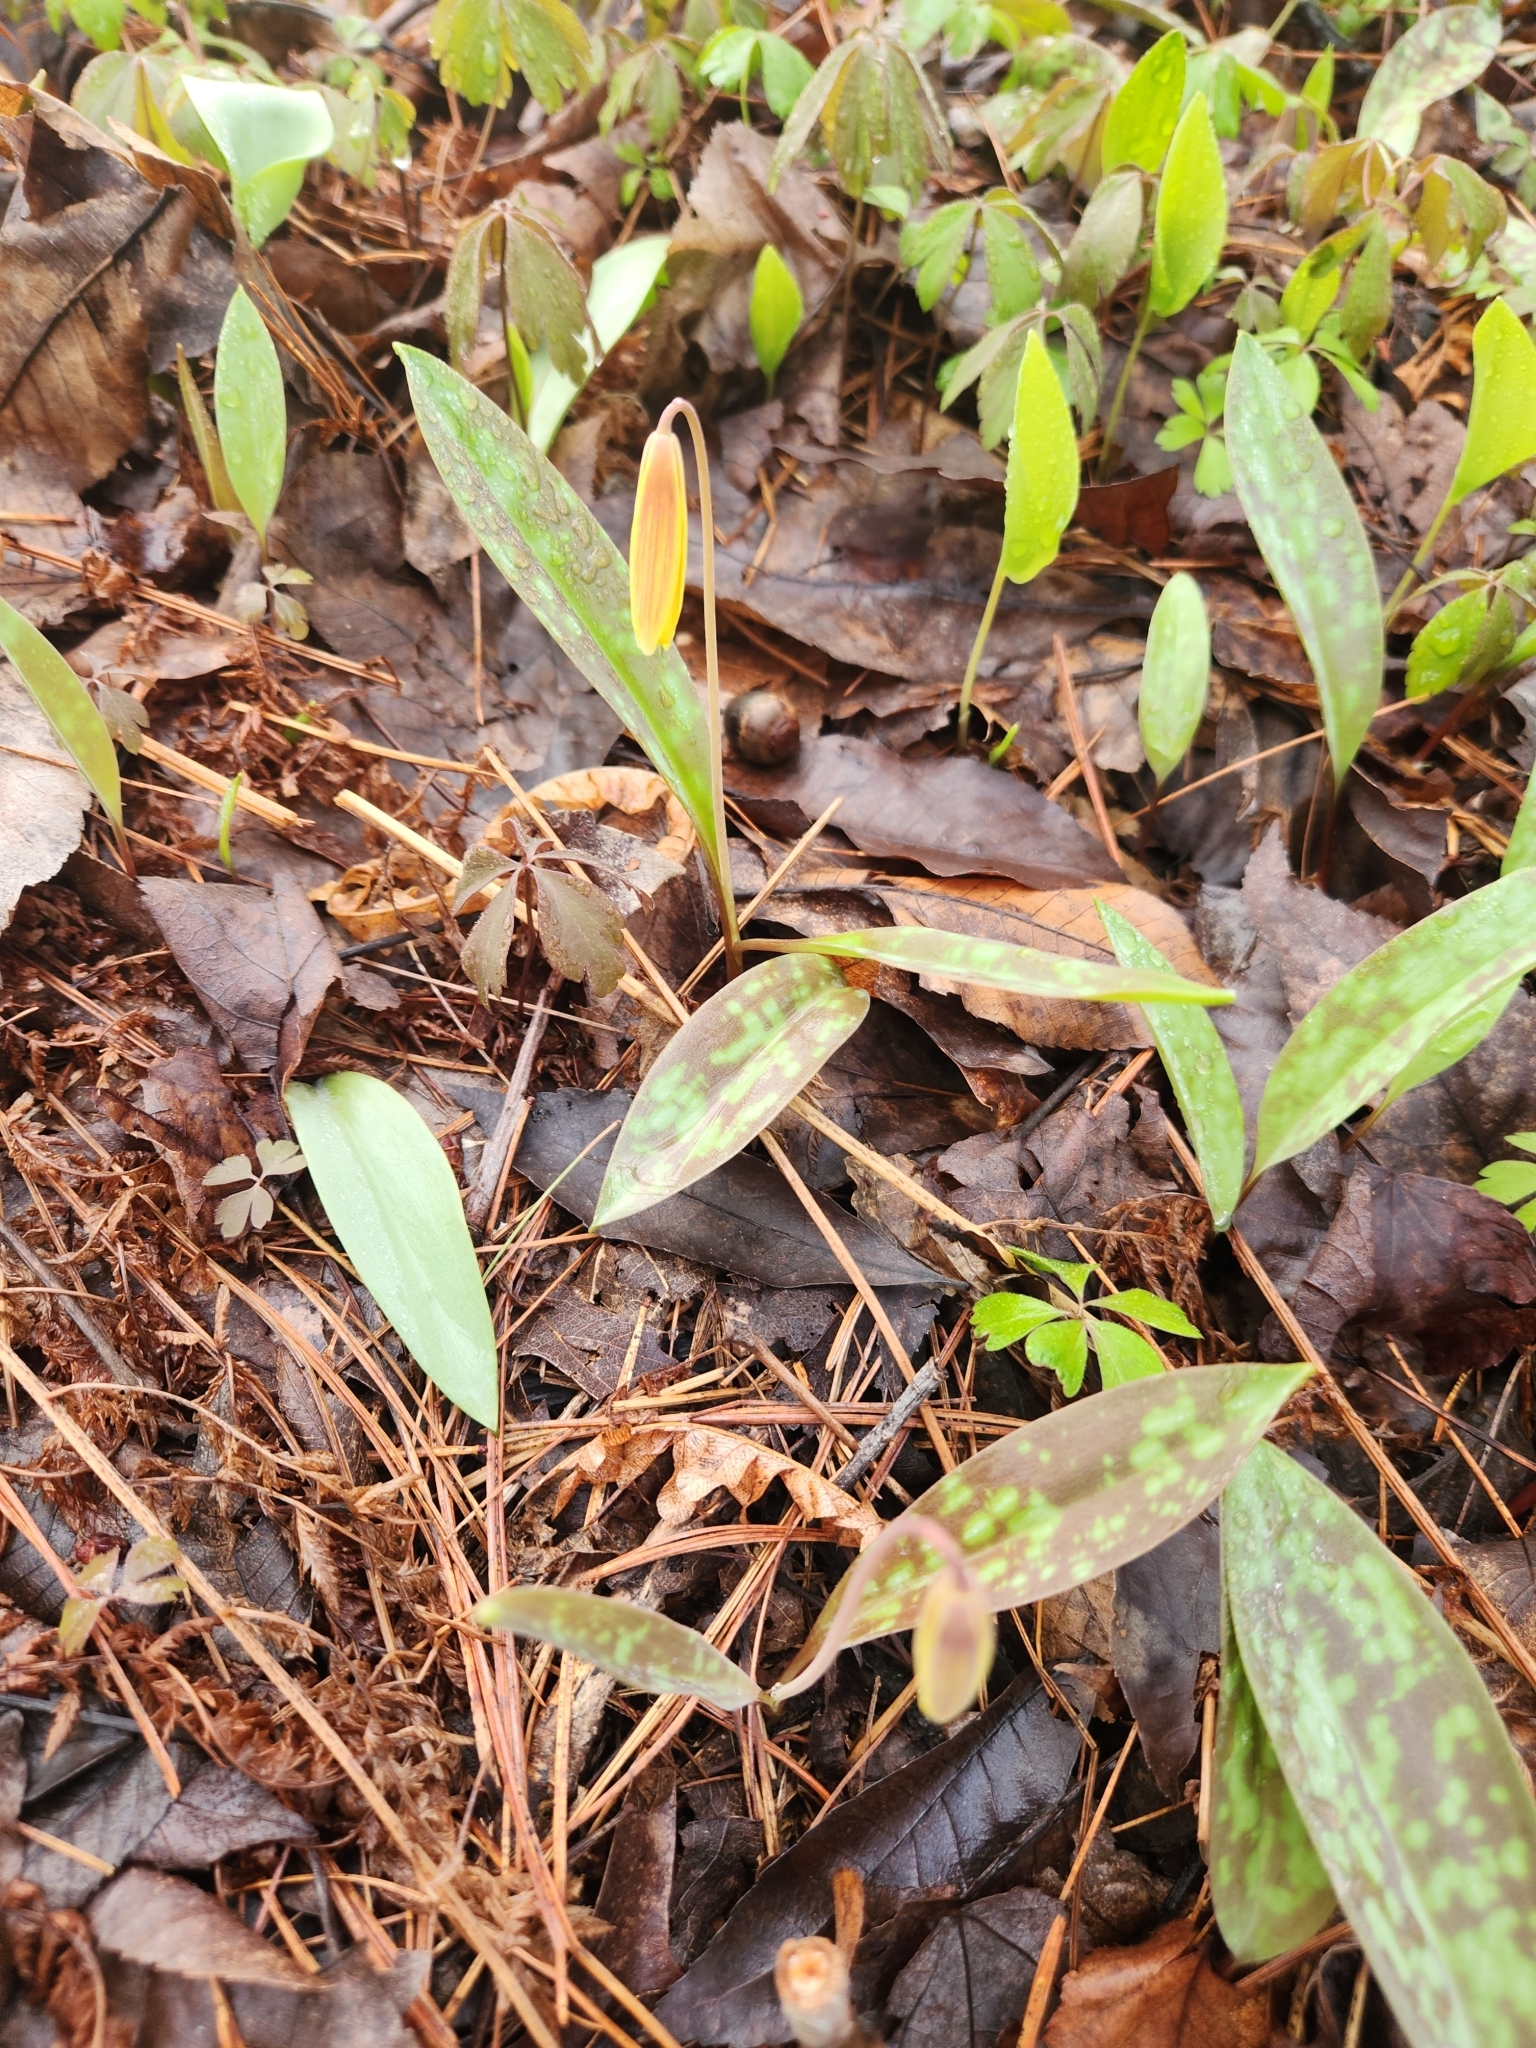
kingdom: Plantae
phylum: Tracheophyta
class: Liliopsida
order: Liliales
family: Liliaceae
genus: Erythronium
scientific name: Erythronium americanum
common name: Yellow adder's-tongue
